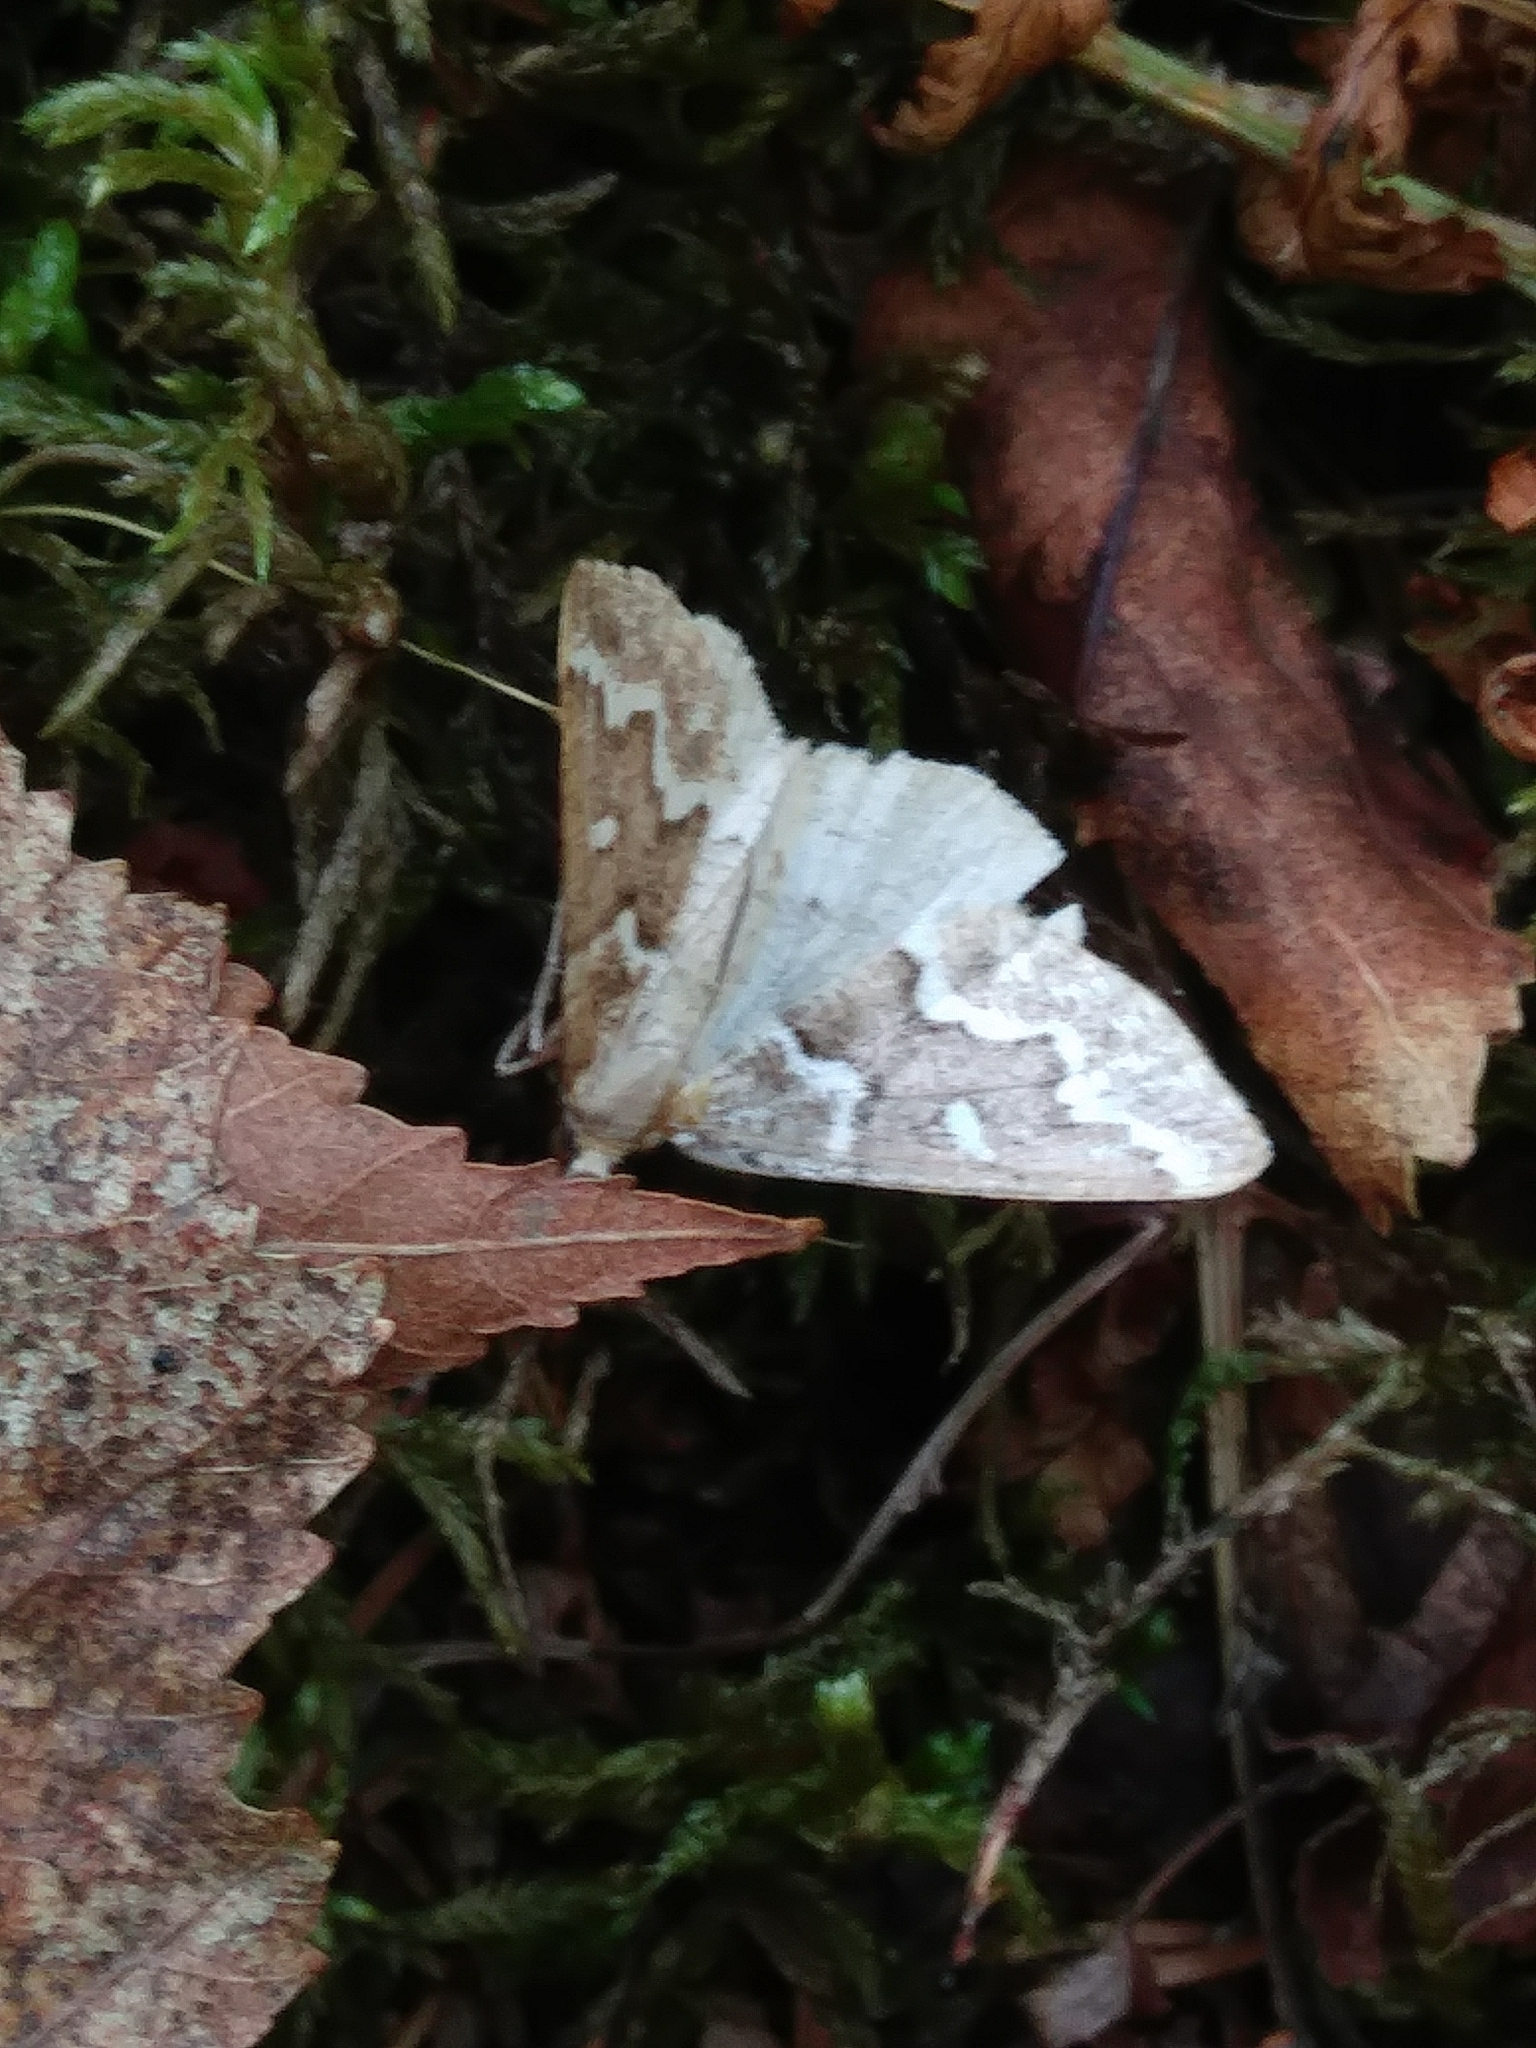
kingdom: Animalia
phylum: Arthropoda
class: Insecta
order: Lepidoptera
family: Geometridae
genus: Caripeta
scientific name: Caripeta divisata
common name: Gray spruce looper
